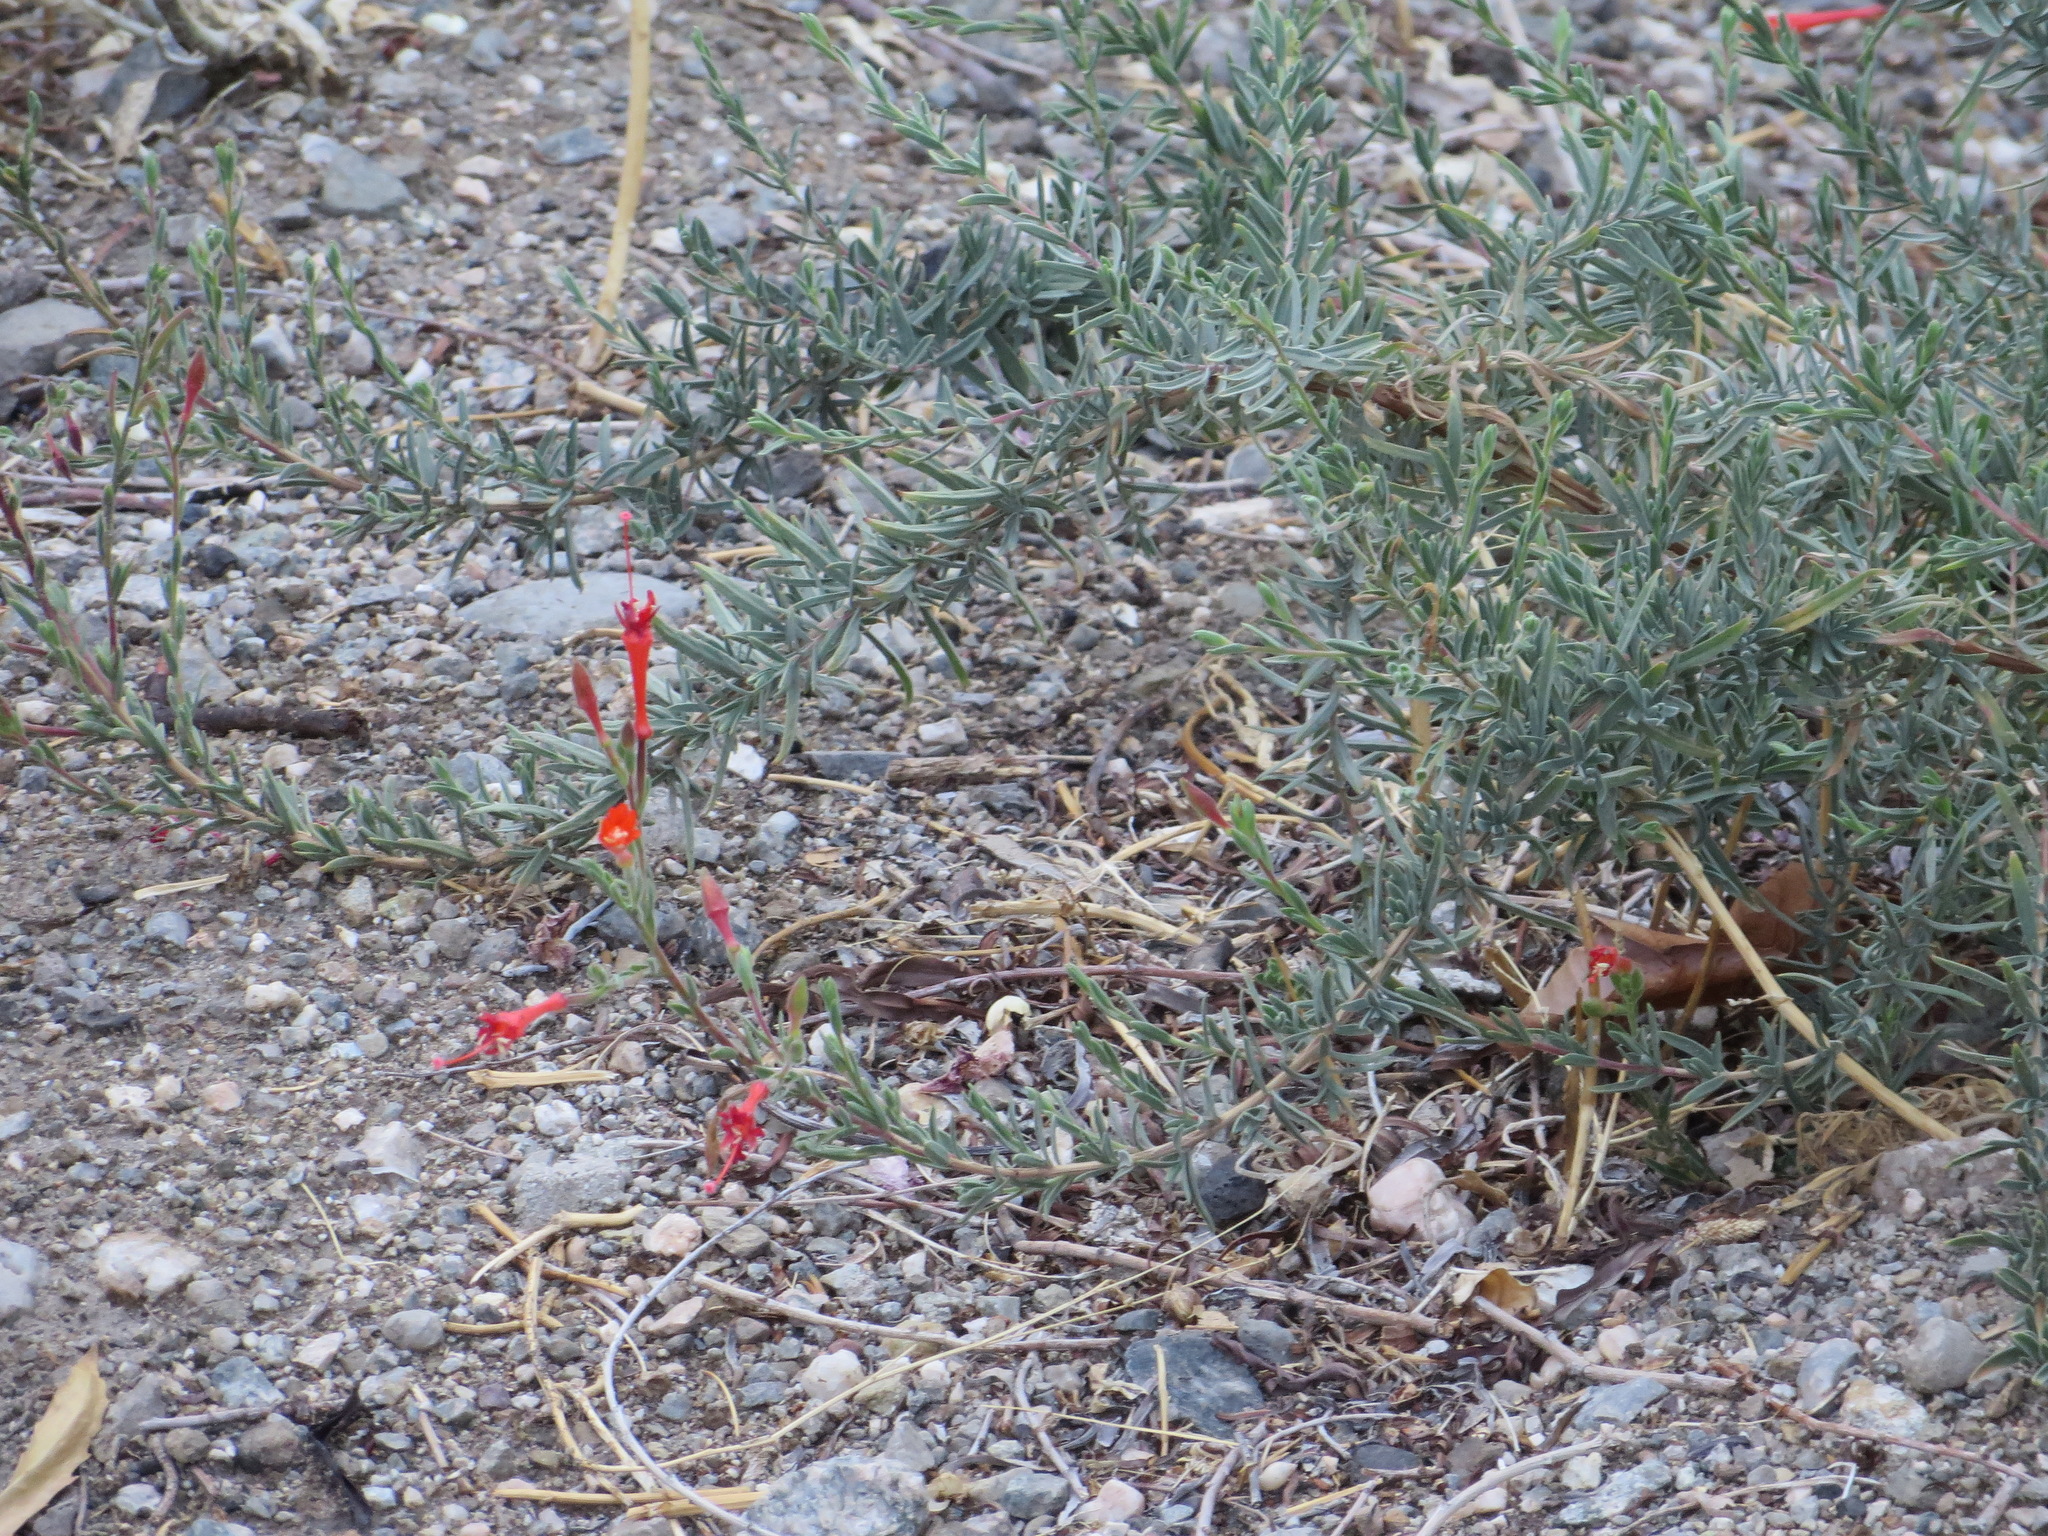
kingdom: Plantae
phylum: Tracheophyta
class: Magnoliopsida
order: Myrtales
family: Onagraceae
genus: Epilobium
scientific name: Epilobium canum
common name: California-fuchsia
